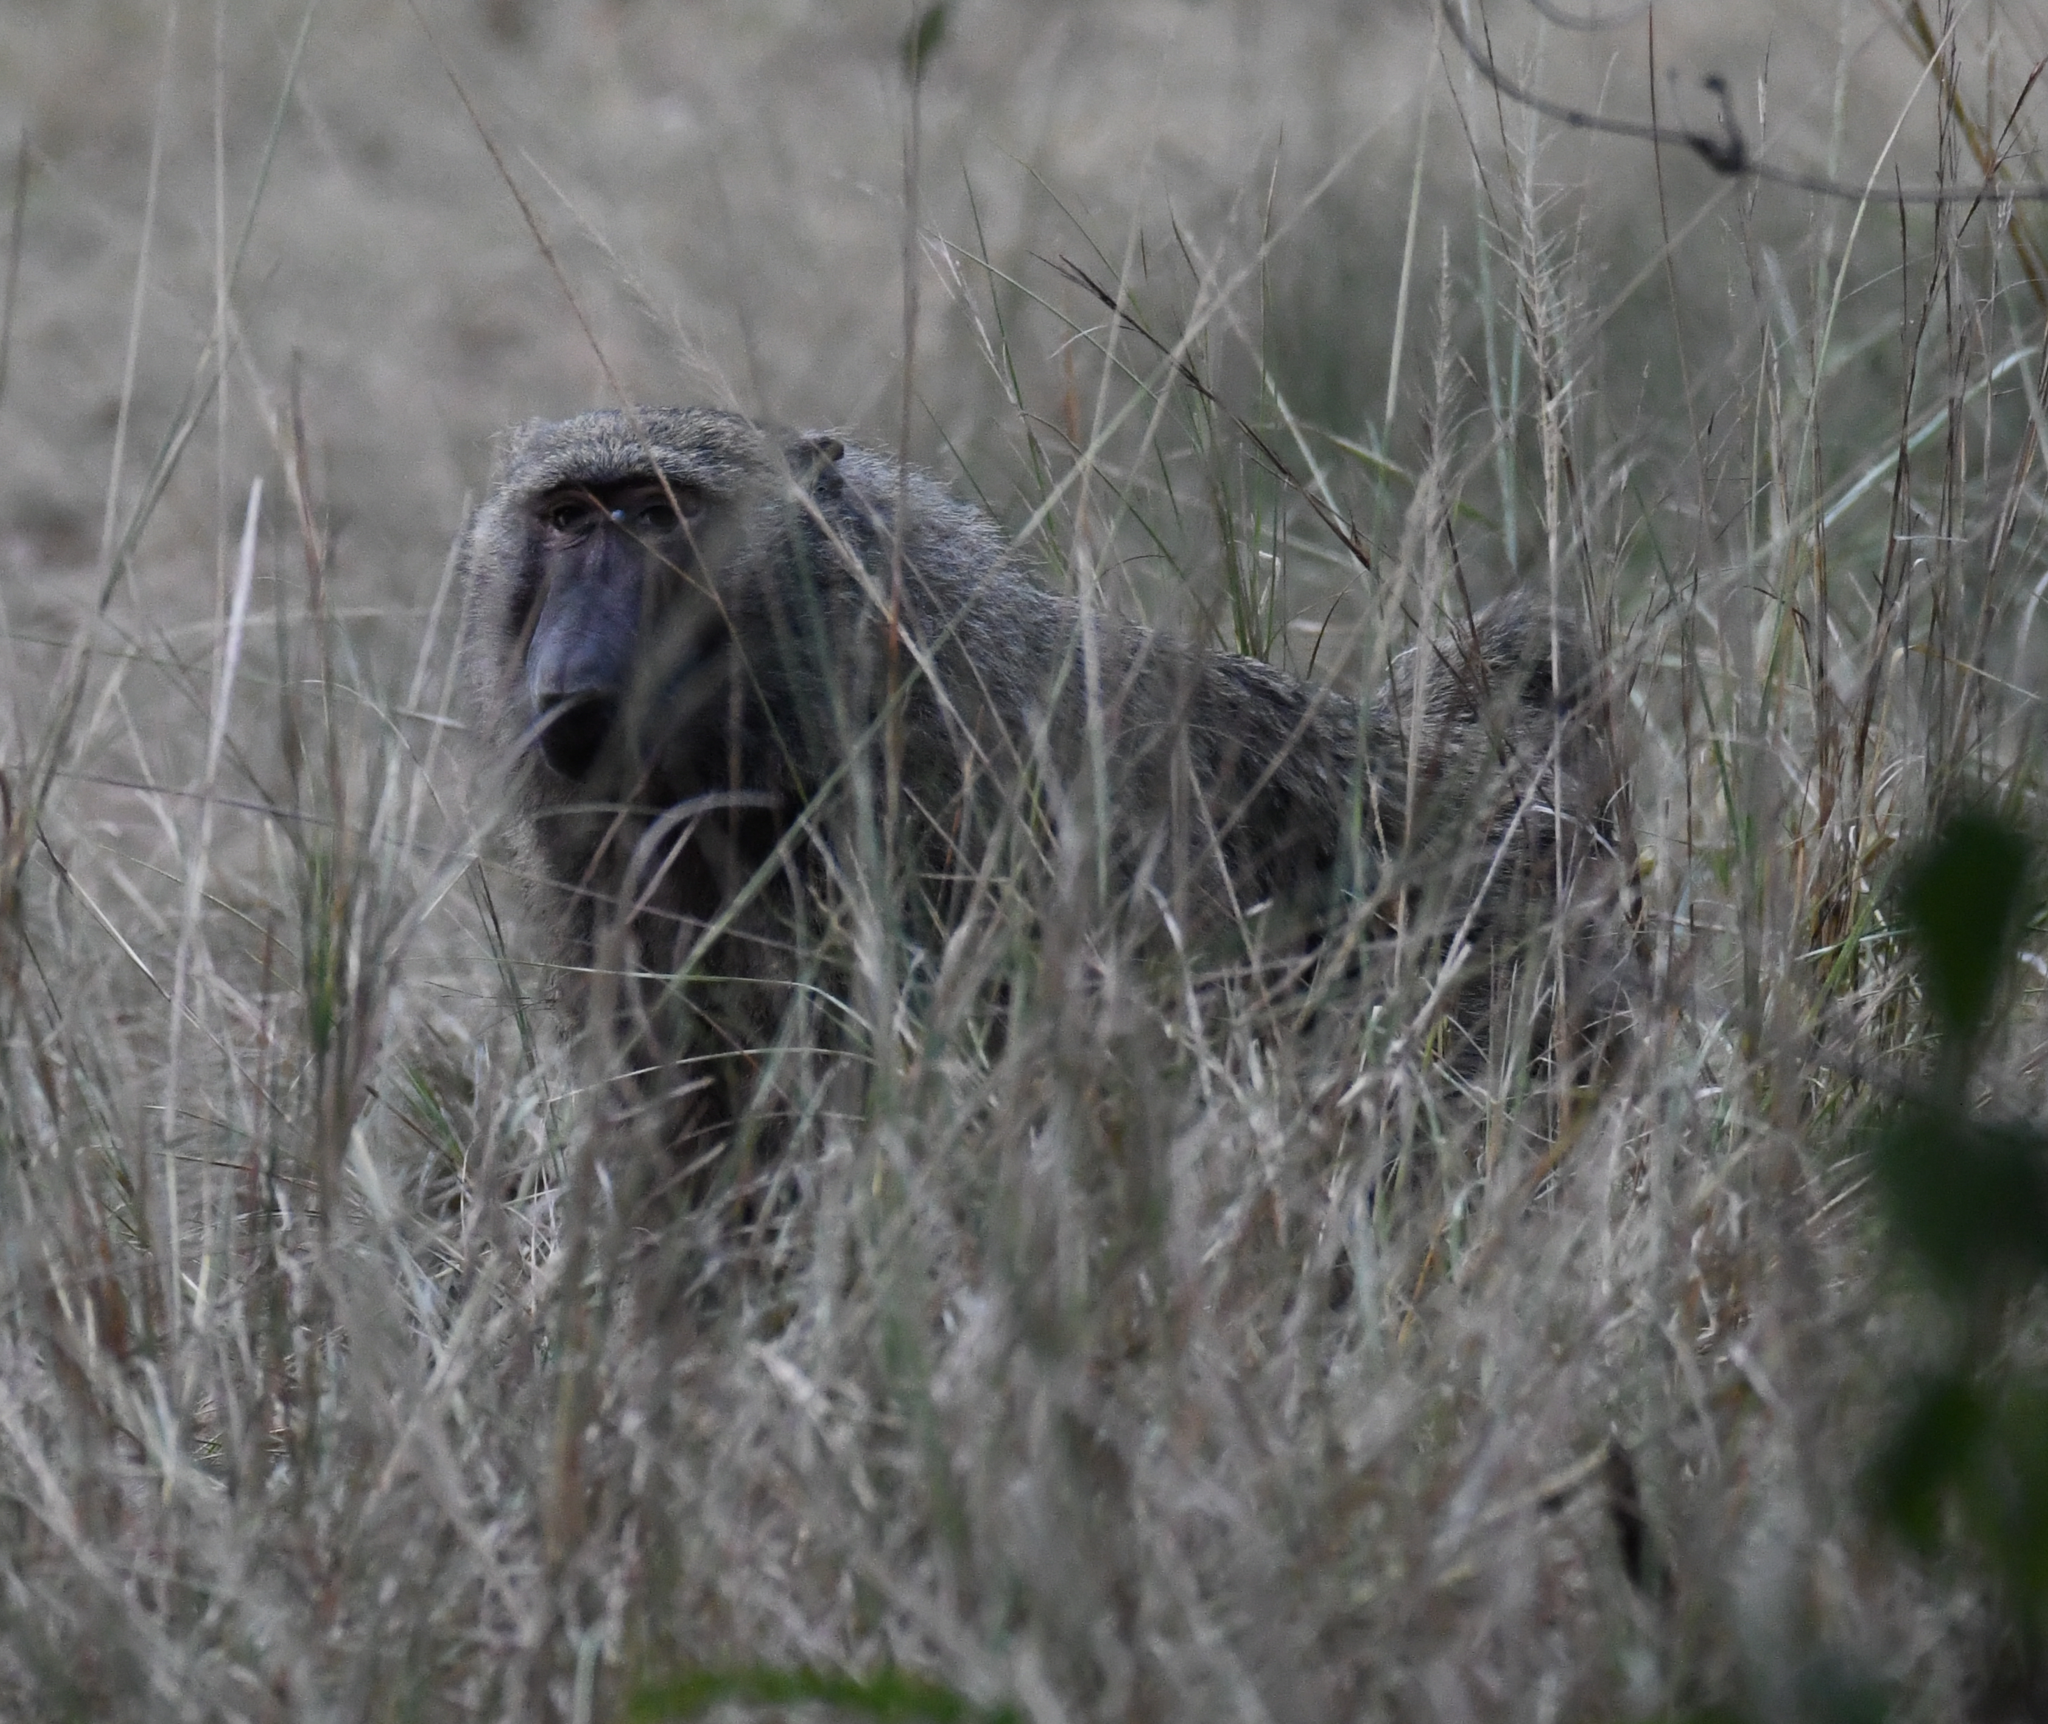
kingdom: Animalia
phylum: Chordata
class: Mammalia
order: Primates
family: Cercopithecidae
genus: Papio
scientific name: Papio anubis
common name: Olive baboon
